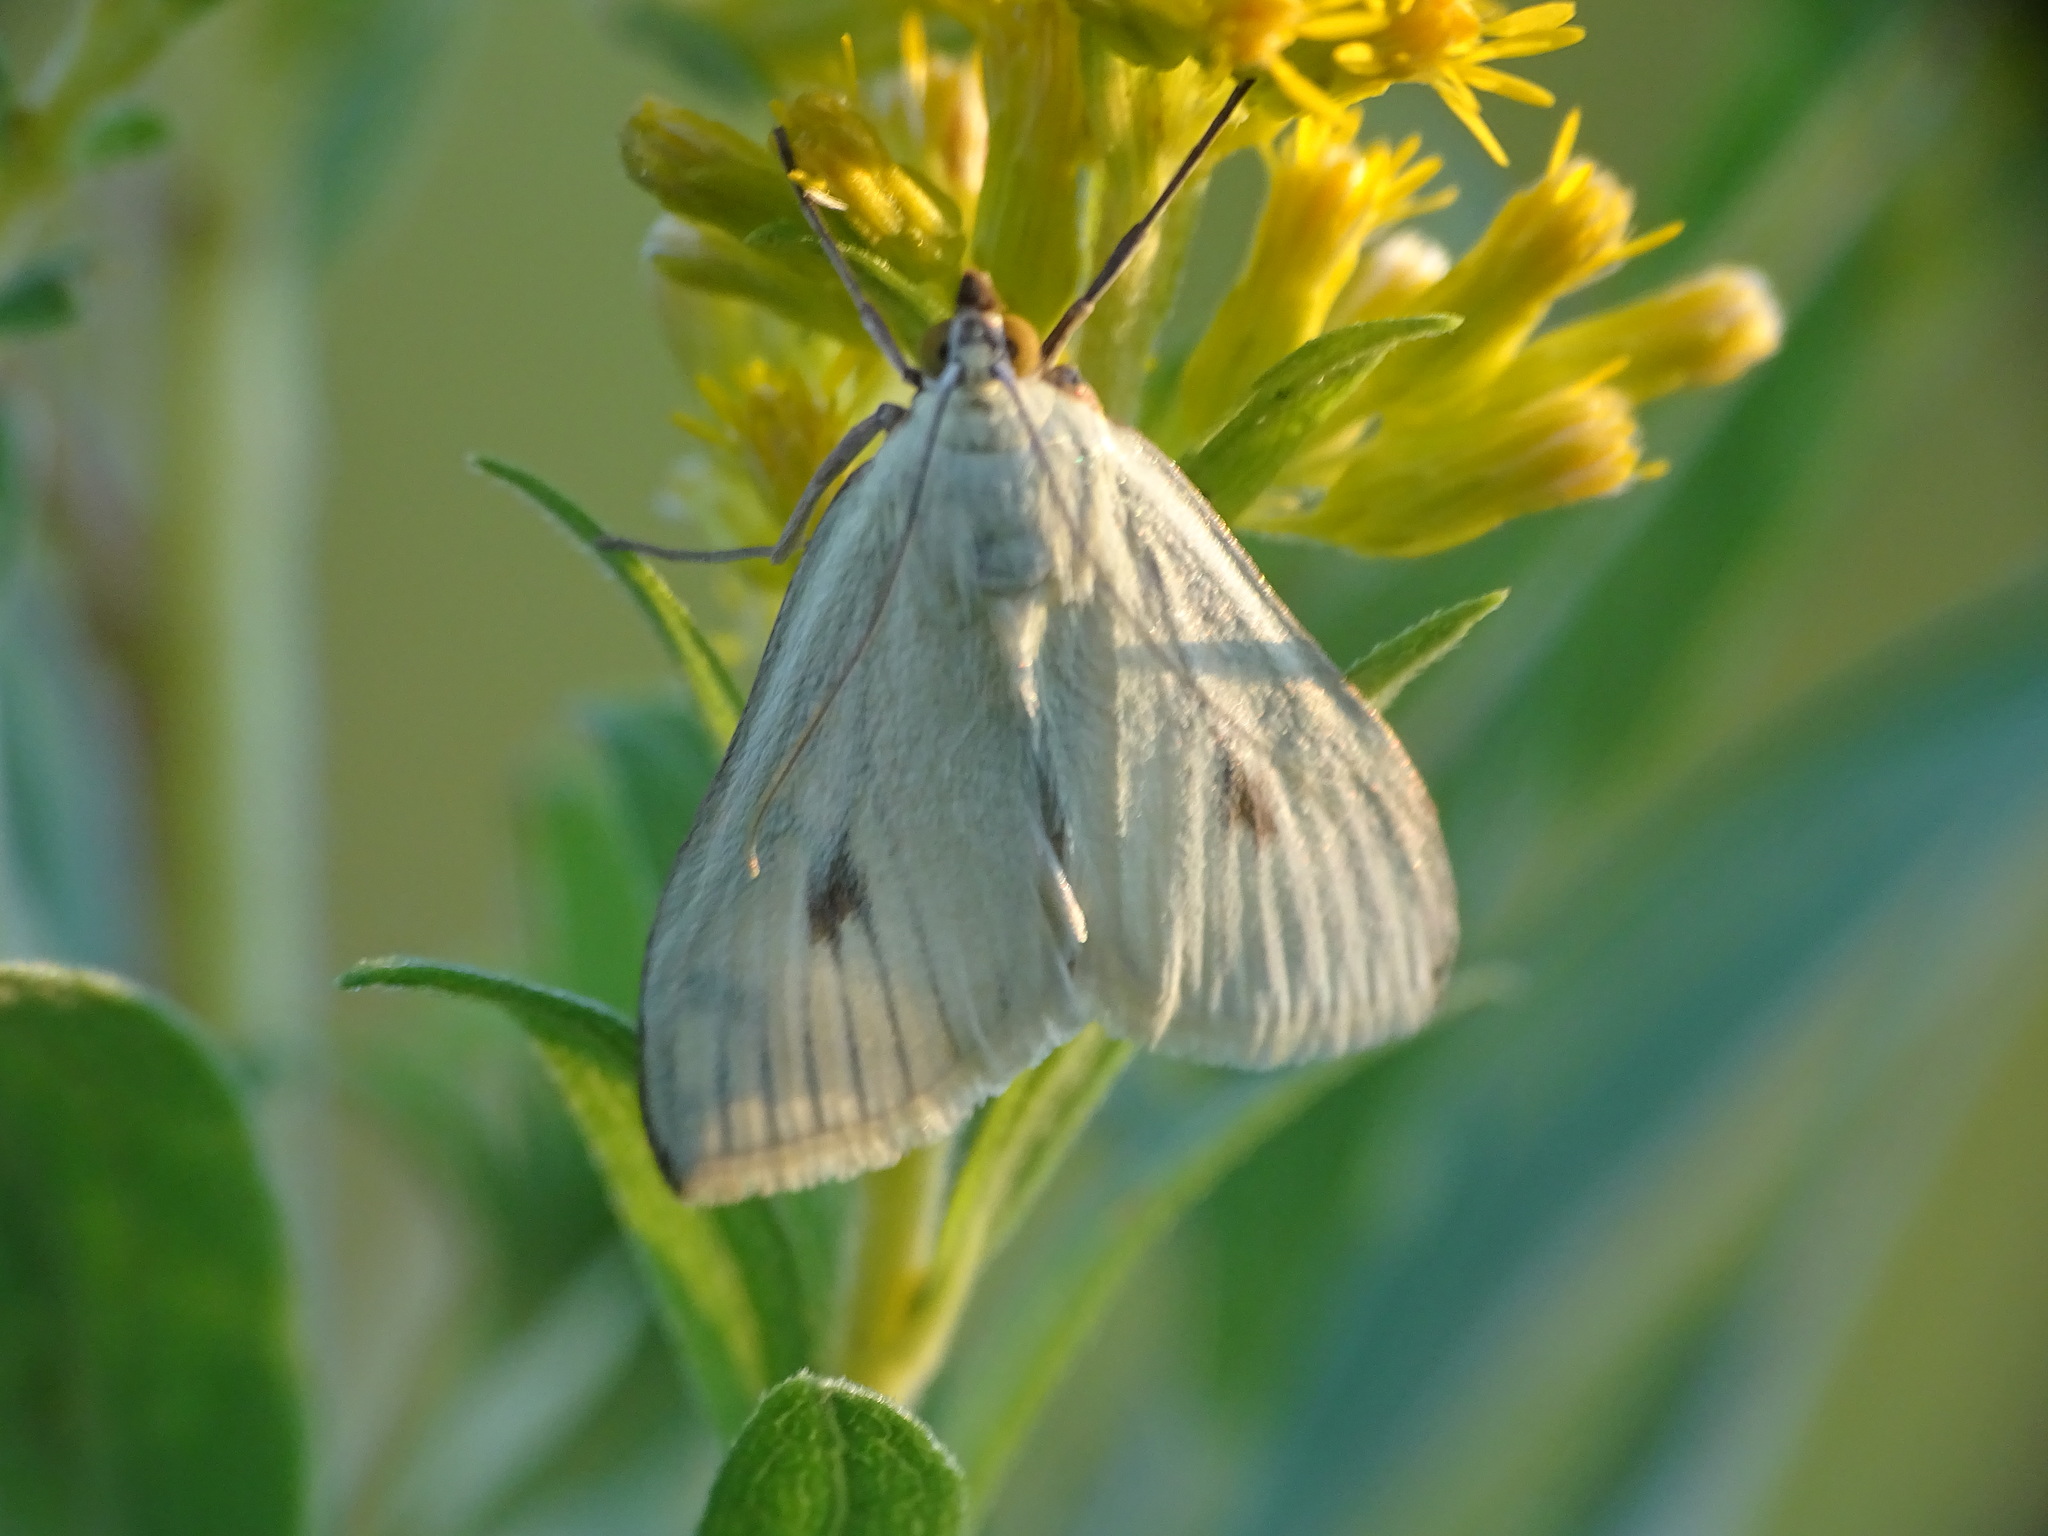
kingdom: Animalia
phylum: Arthropoda
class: Insecta
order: Lepidoptera
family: Crambidae
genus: Sitochroa
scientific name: Sitochroa palealis
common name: Greenish-yellow sitochroa moth
